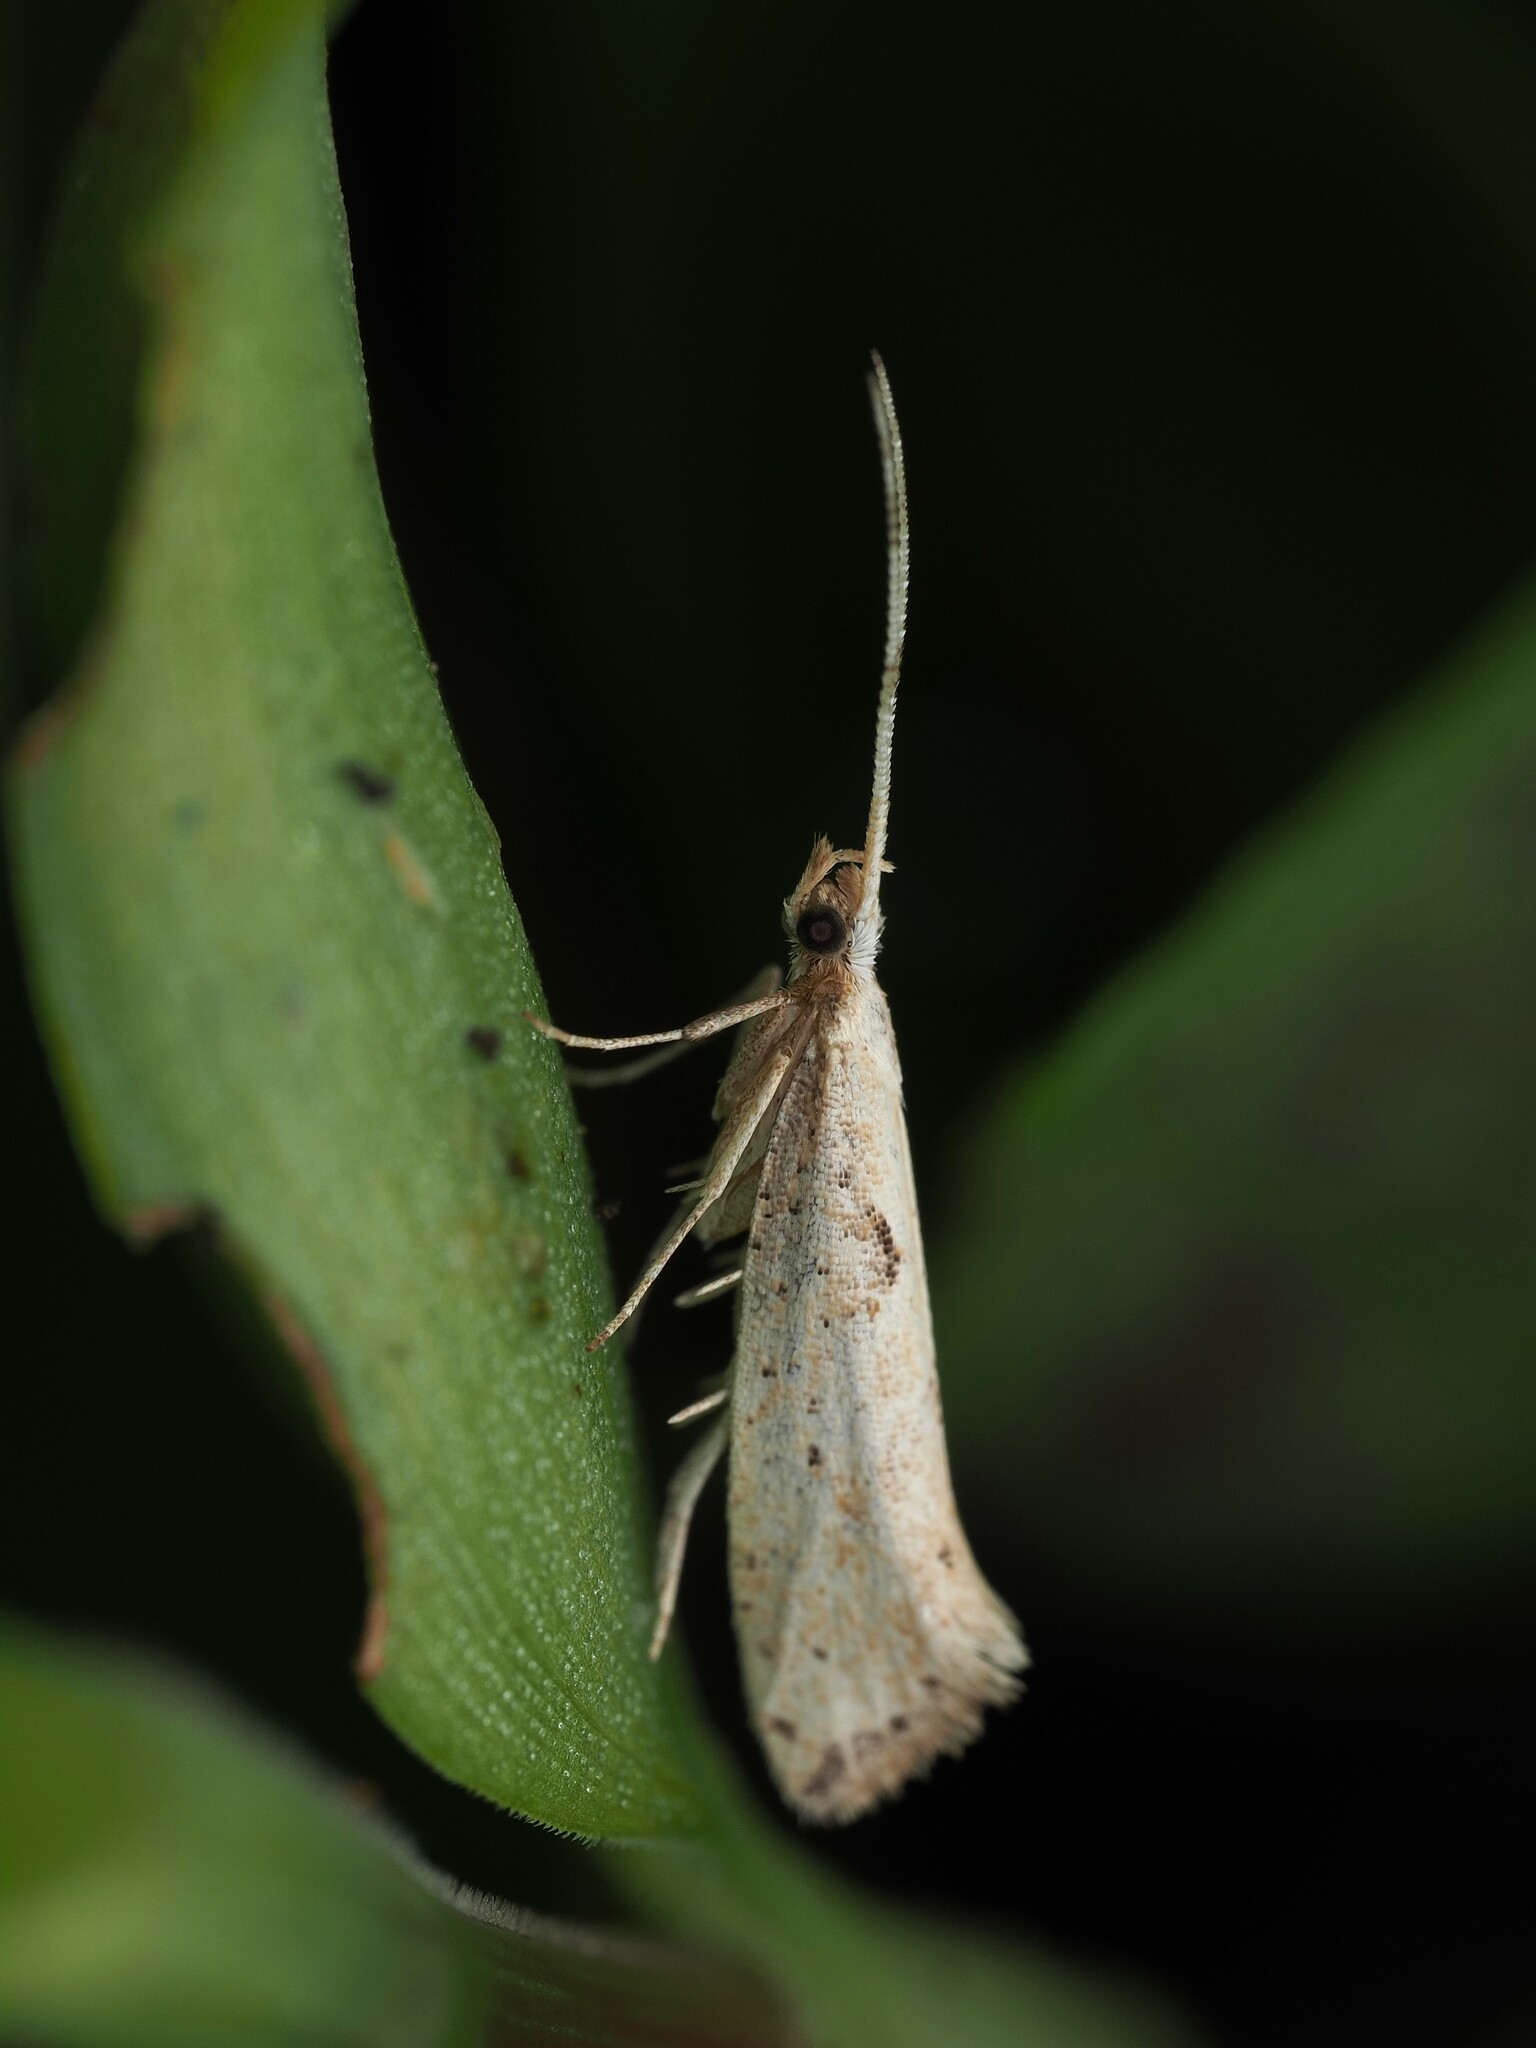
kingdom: Animalia
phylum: Arthropoda
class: Insecta
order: Lepidoptera
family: Plutellidae
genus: Leuroperna
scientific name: Leuroperna sera
